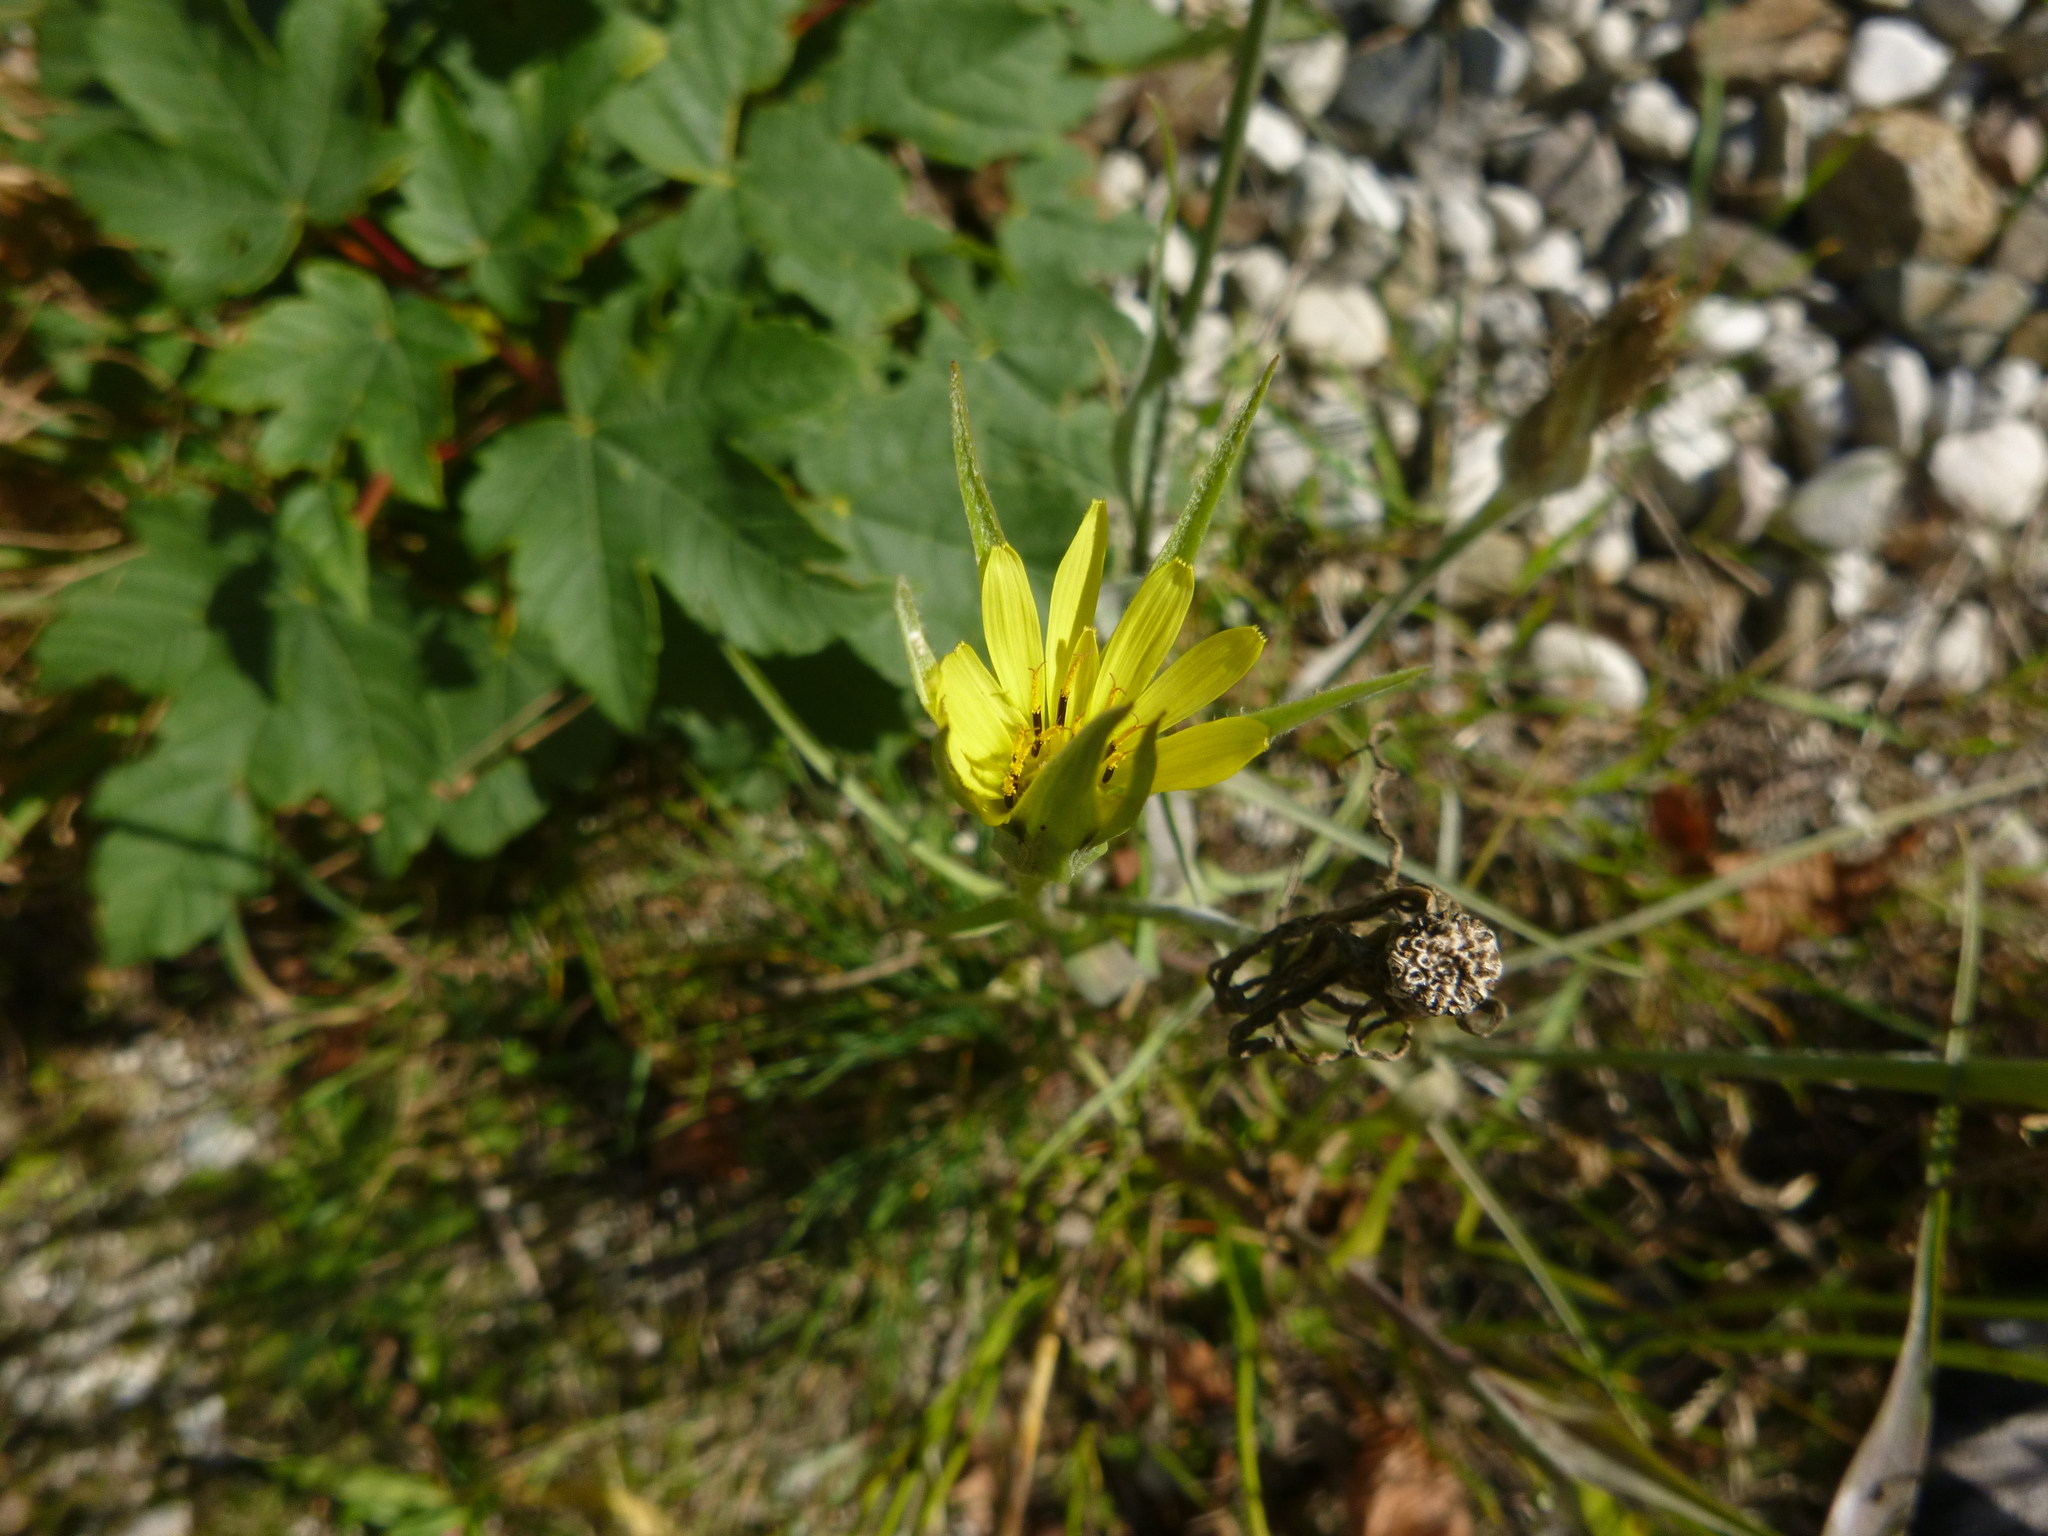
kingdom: Plantae
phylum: Tracheophyta
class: Magnoliopsida
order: Asterales
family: Asteraceae
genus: Tragopogon
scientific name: Tragopogon dubius
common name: Yellow salsify
